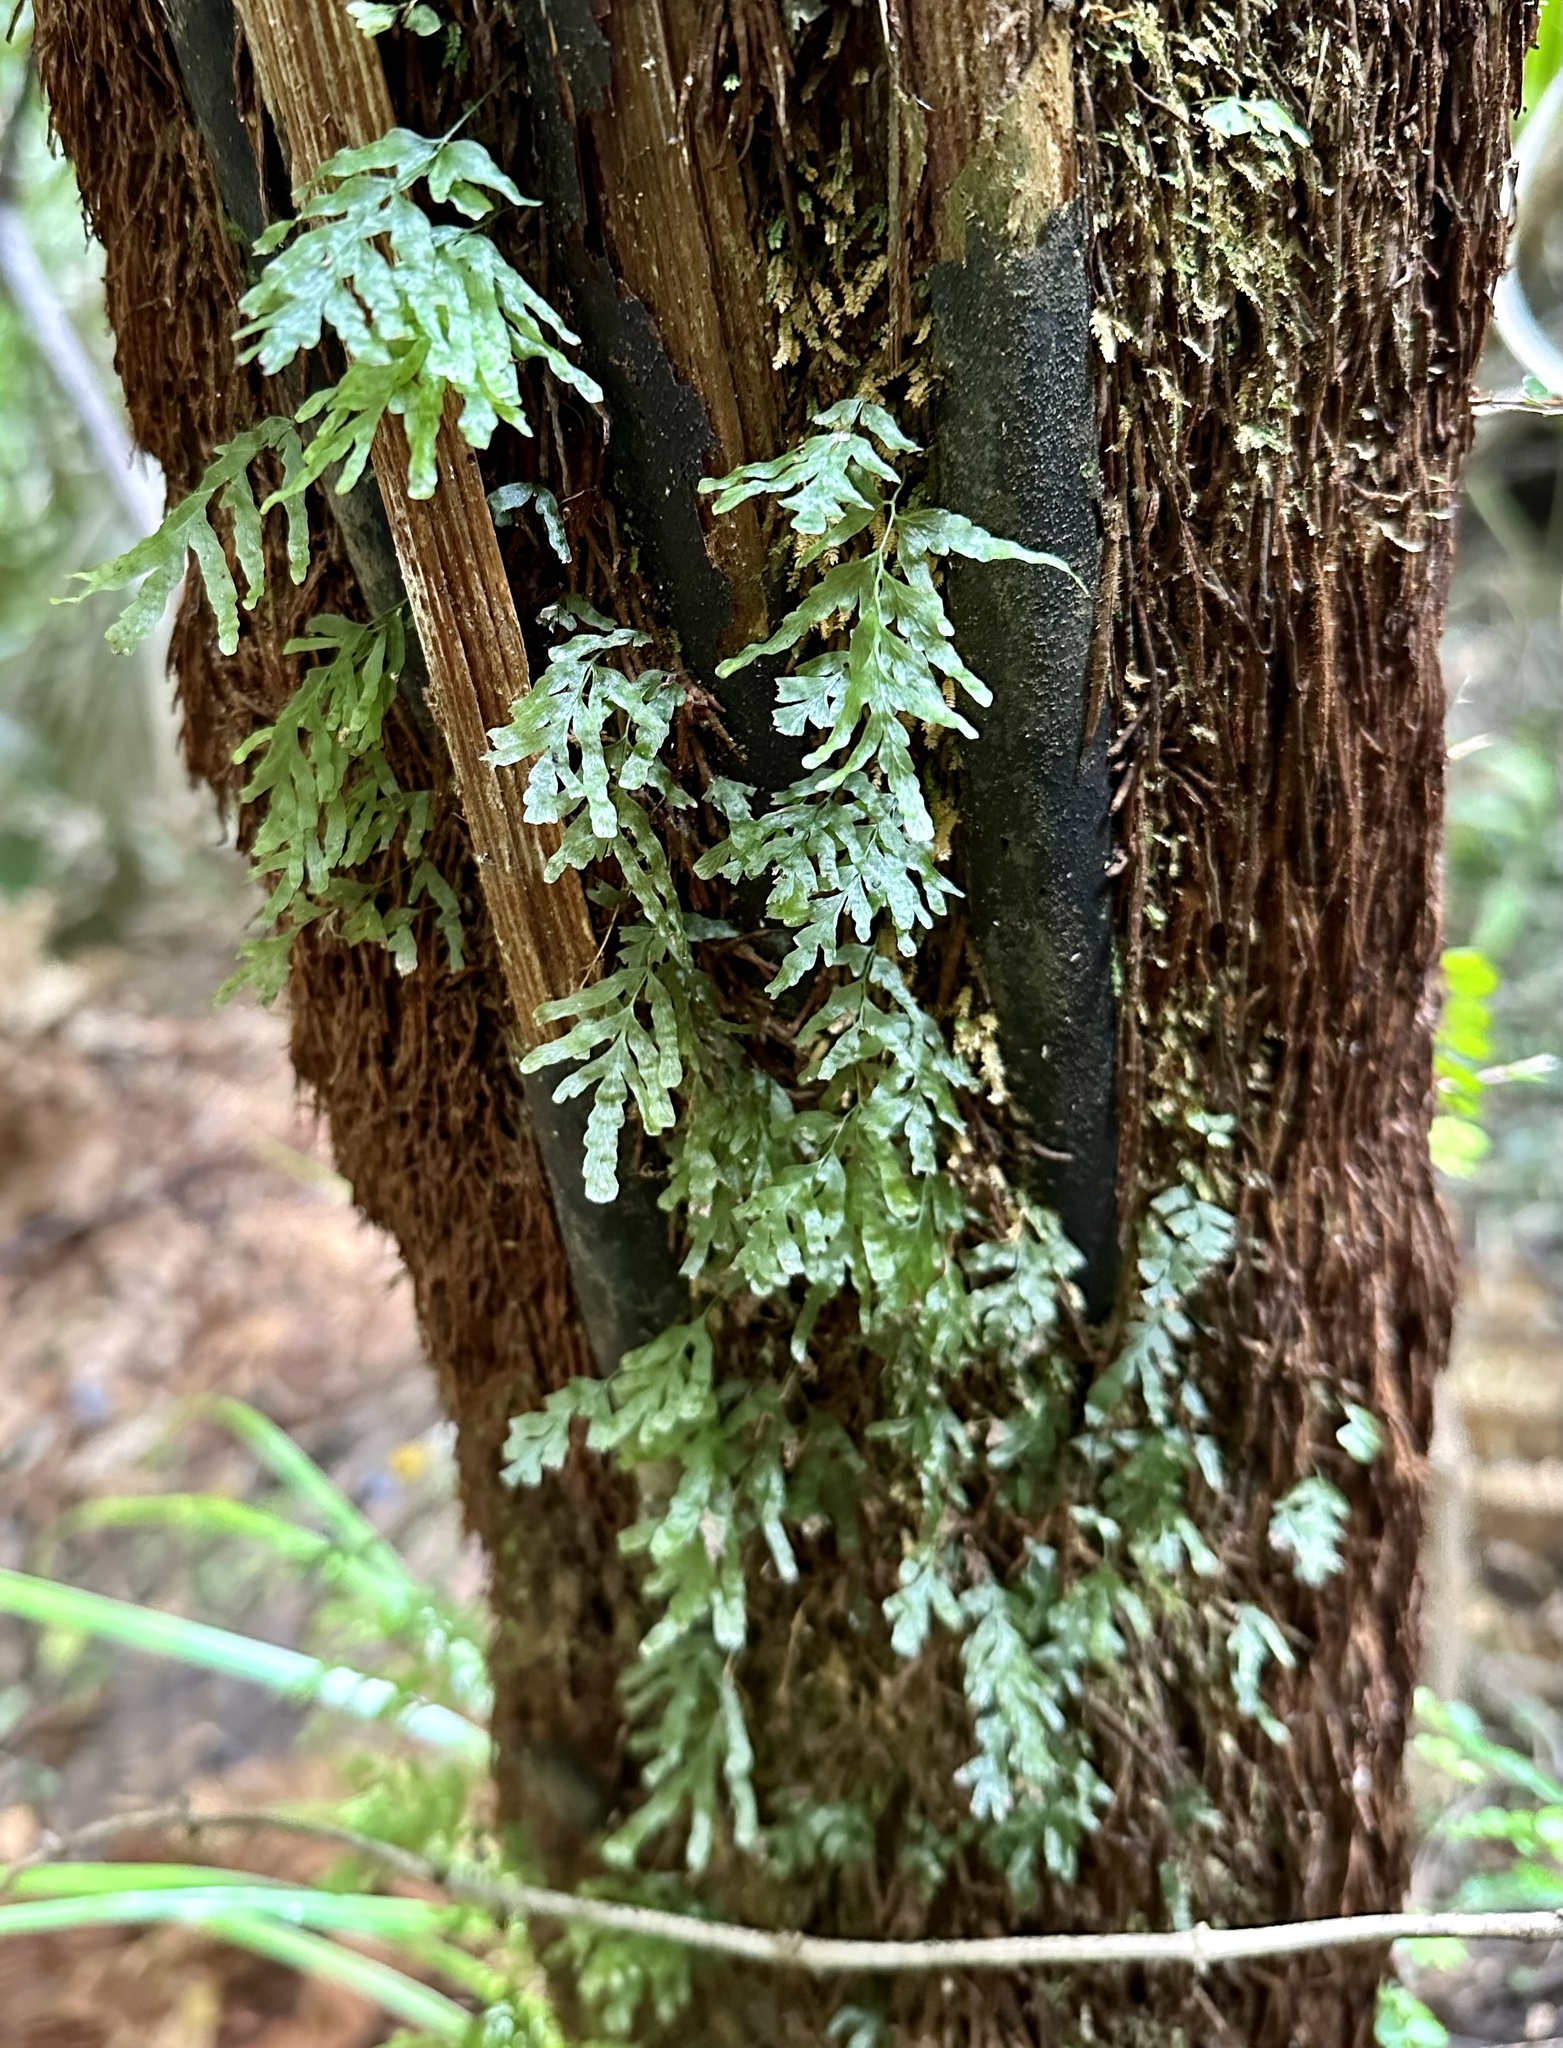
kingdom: Plantae
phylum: Tracheophyta
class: Polypodiopsida
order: Hymenophyllales
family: Hymenophyllaceae
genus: Polyphlebium
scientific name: Polyphlebium venosum
